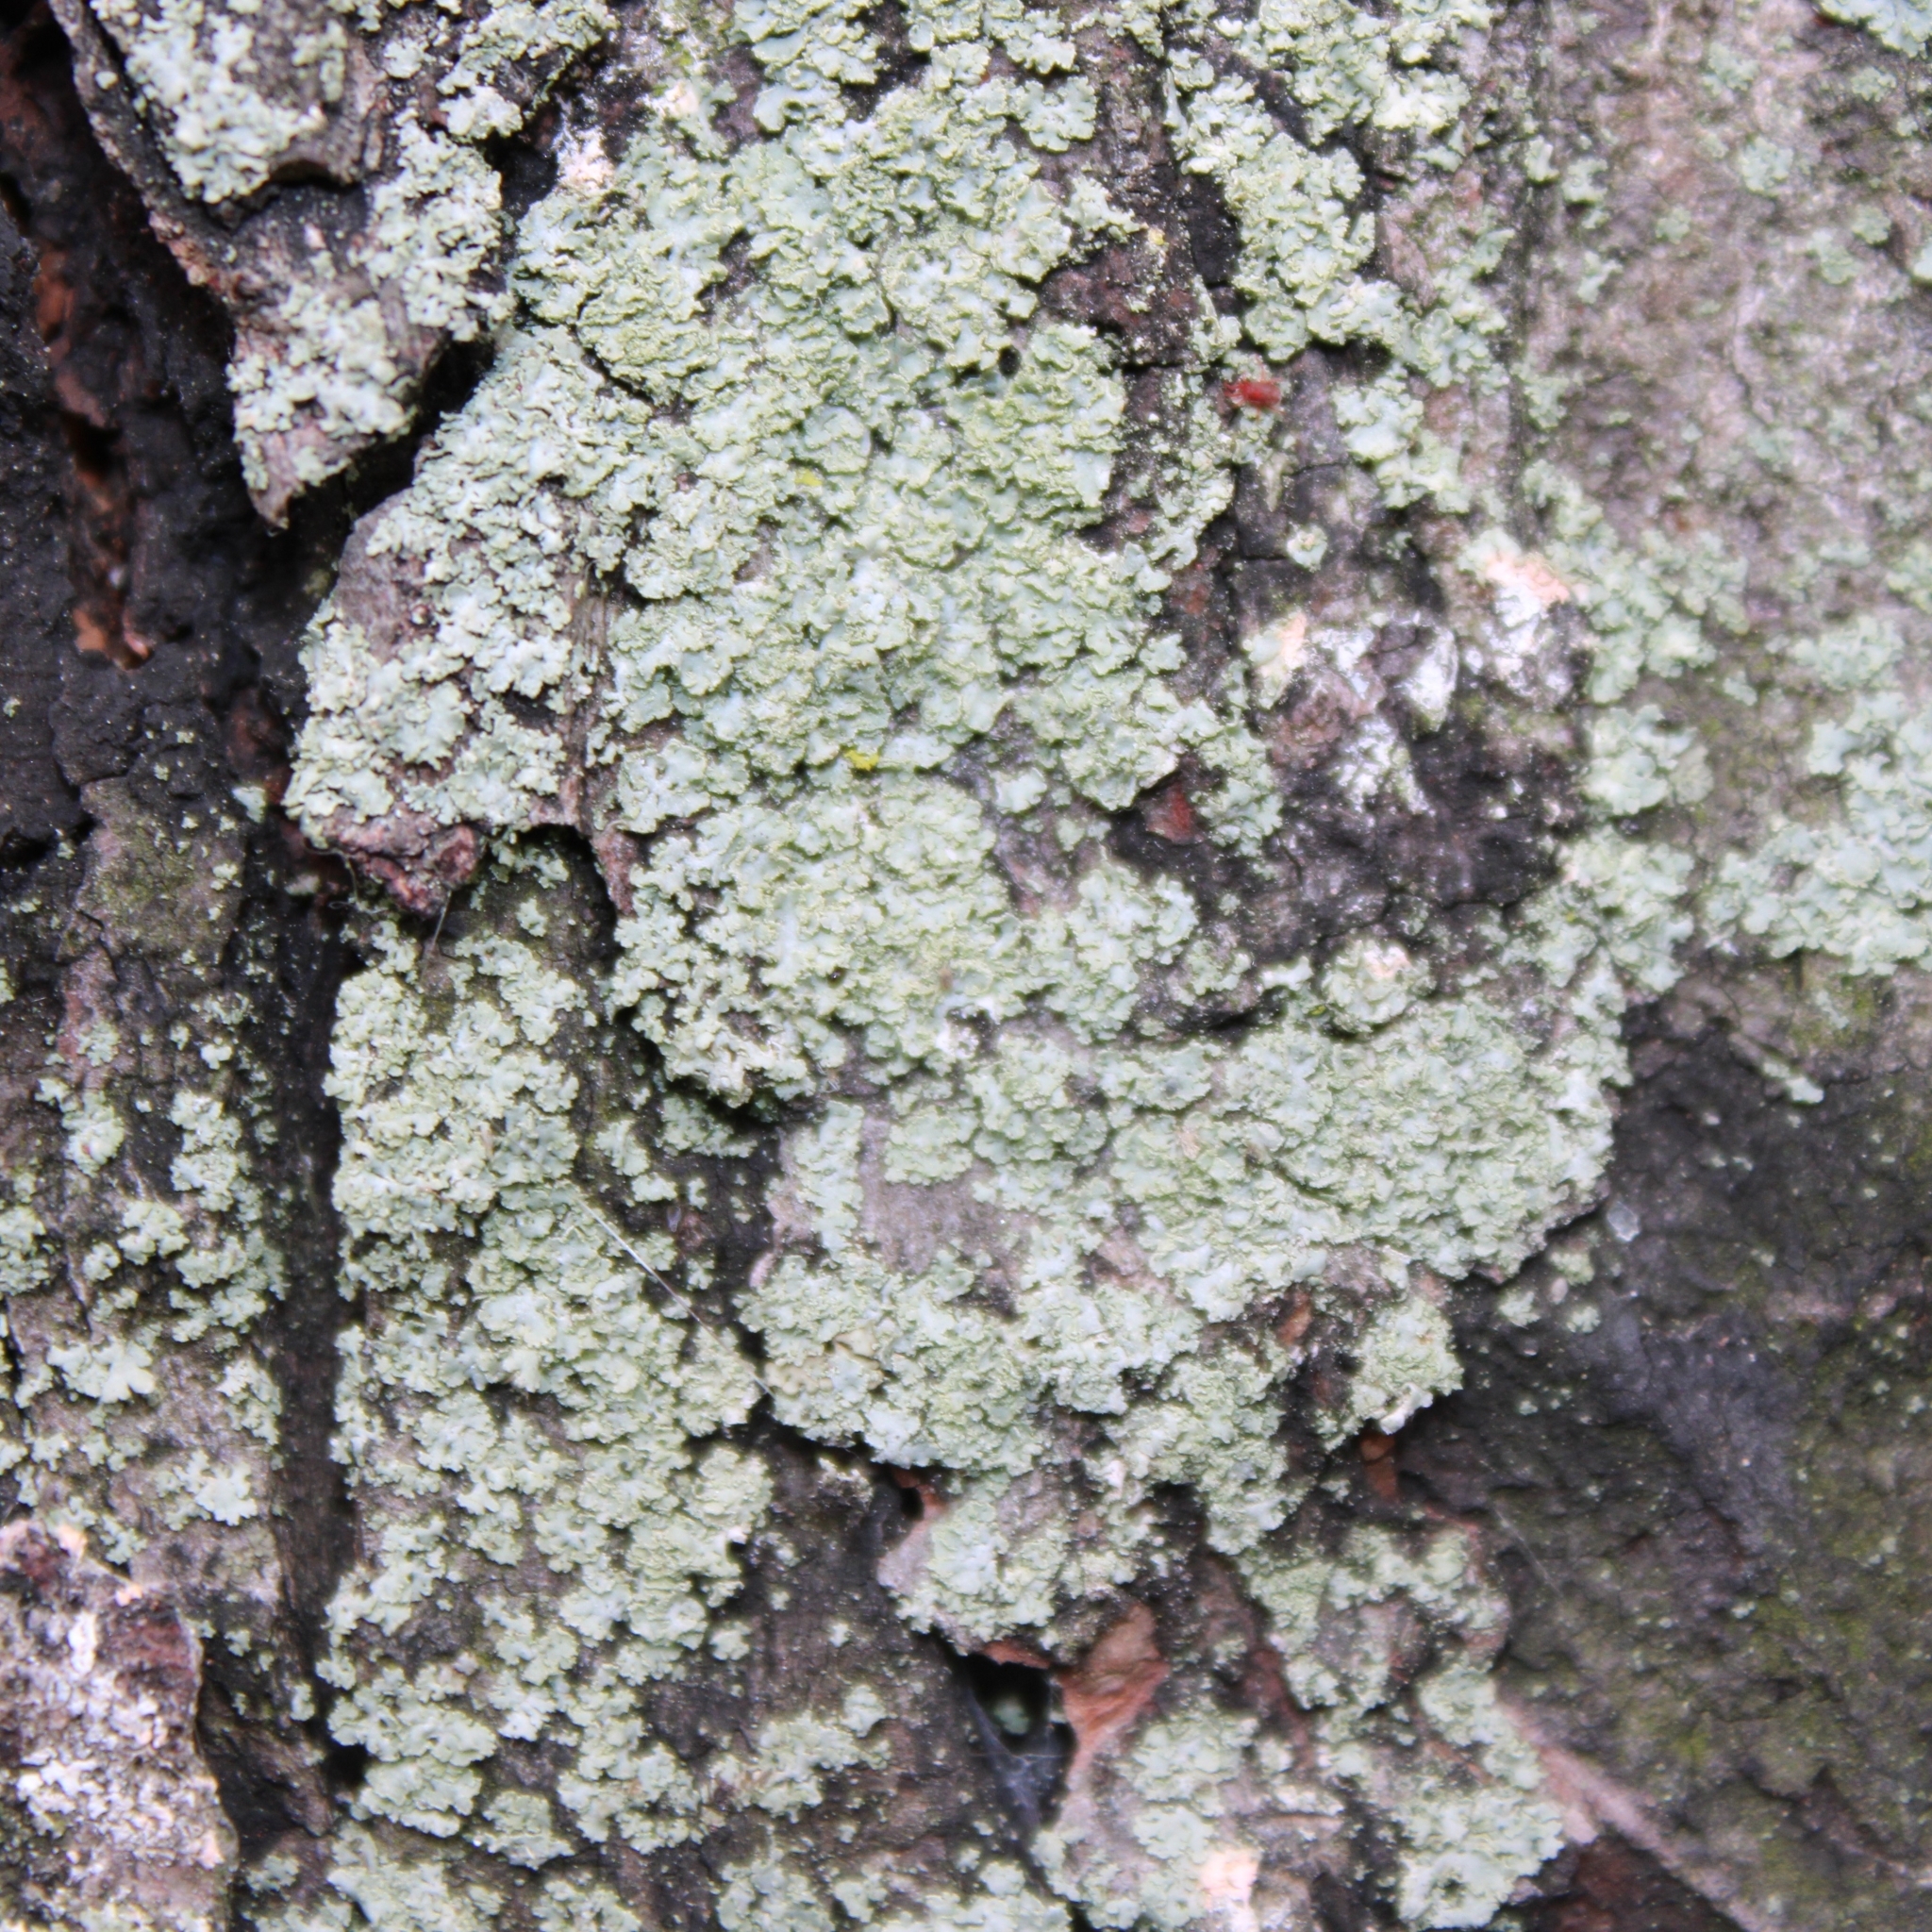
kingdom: Fungi
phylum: Ascomycota
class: Lecanoromycetes
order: Caliciales
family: Physciaceae
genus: Physcia
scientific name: Physcia millegrana
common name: Rosette lichen
